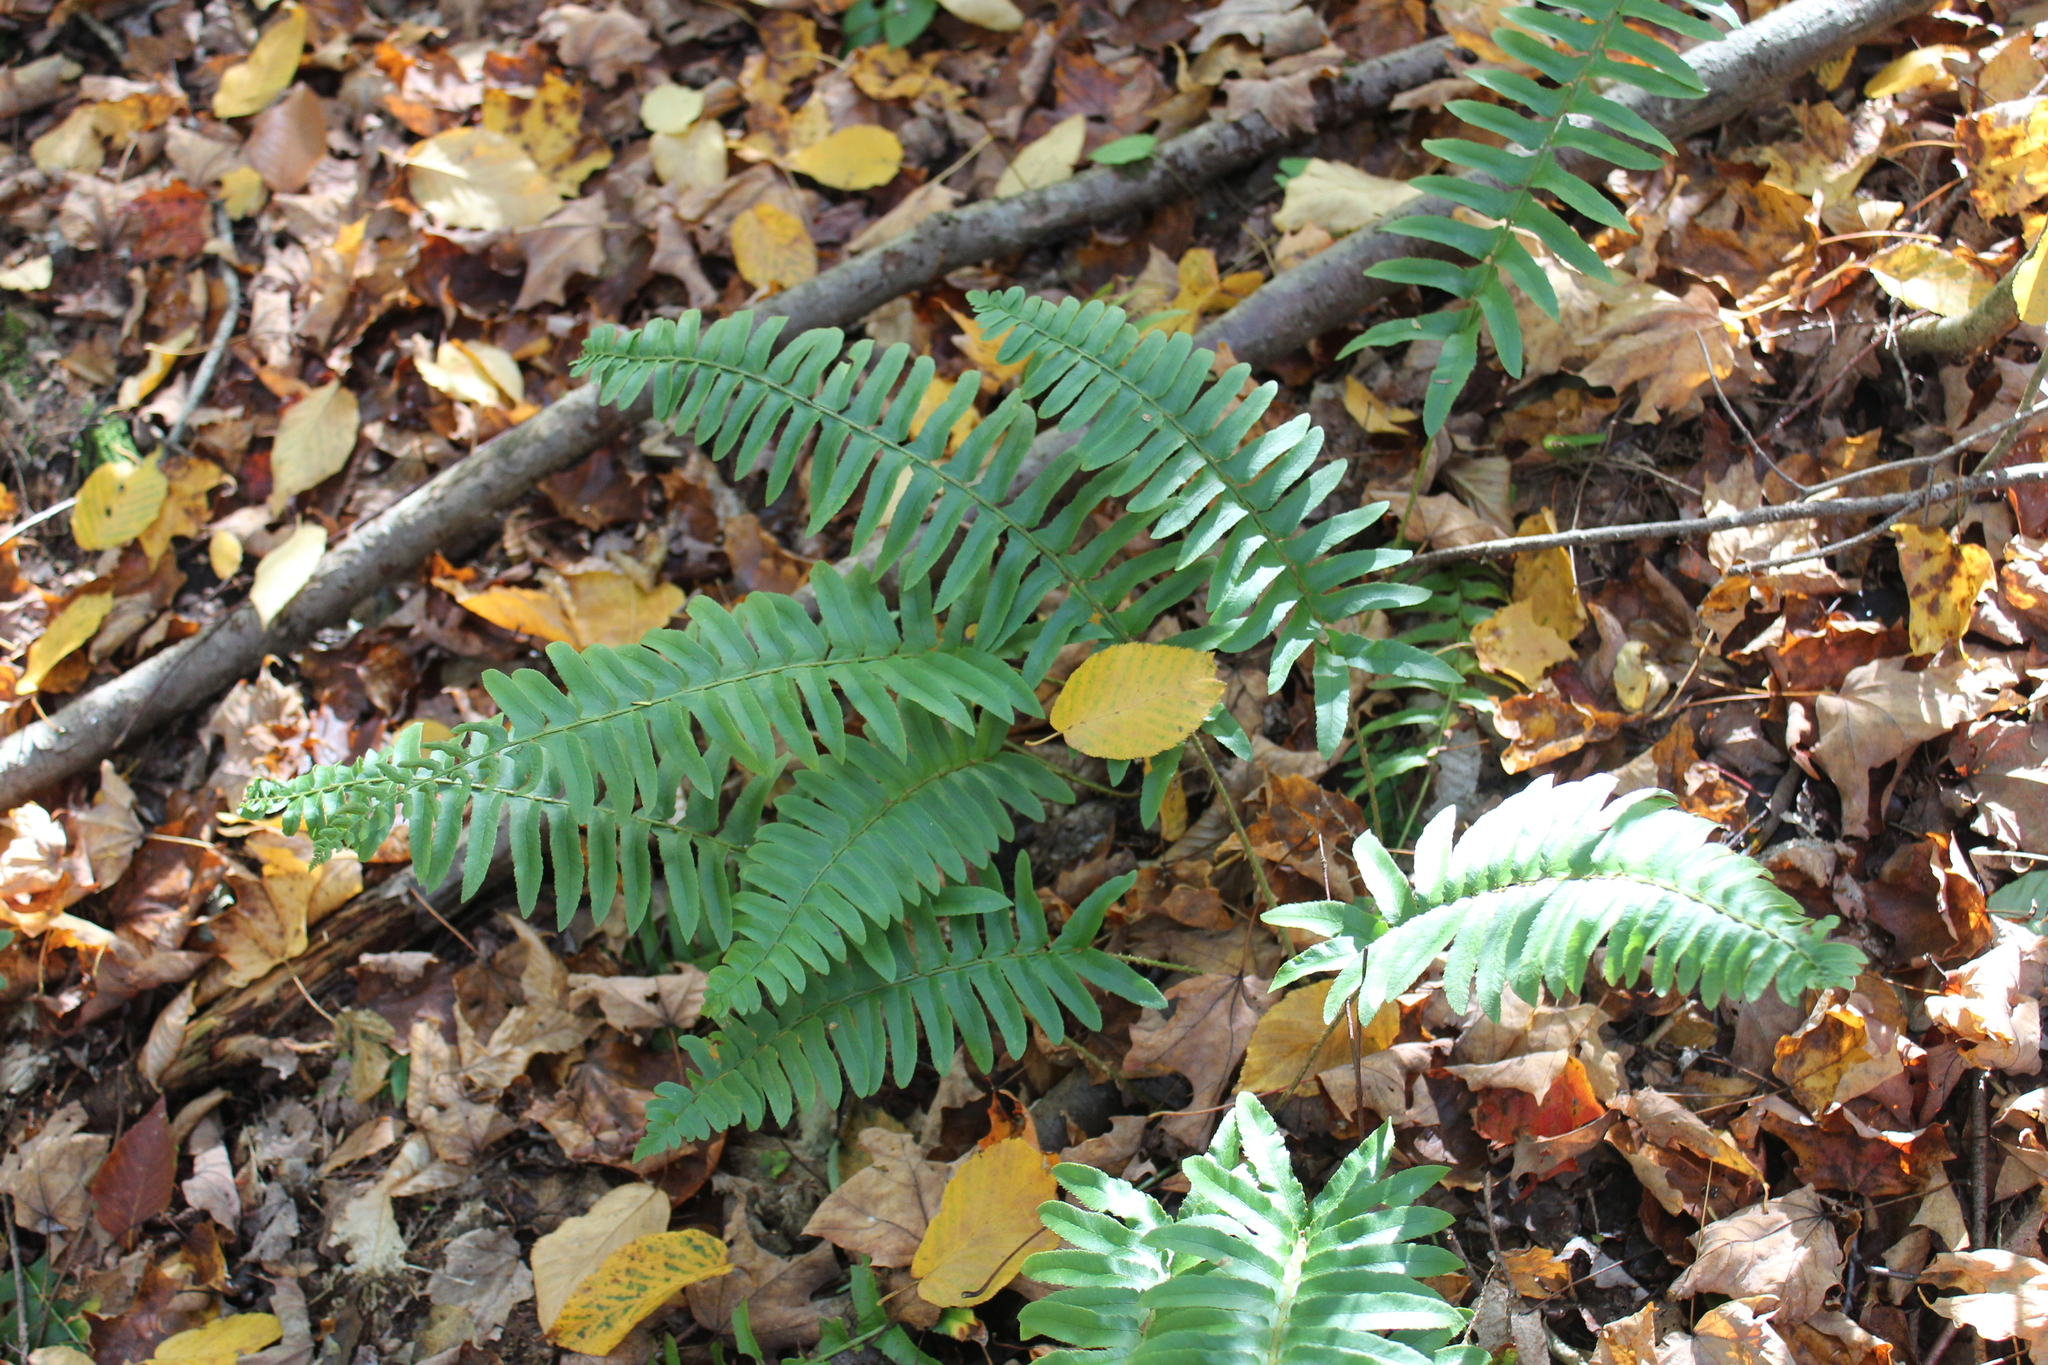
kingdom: Plantae
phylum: Tracheophyta
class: Polypodiopsida
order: Polypodiales
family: Dryopteridaceae
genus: Polystichum
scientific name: Polystichum acrostichoides
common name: Christmas fern
